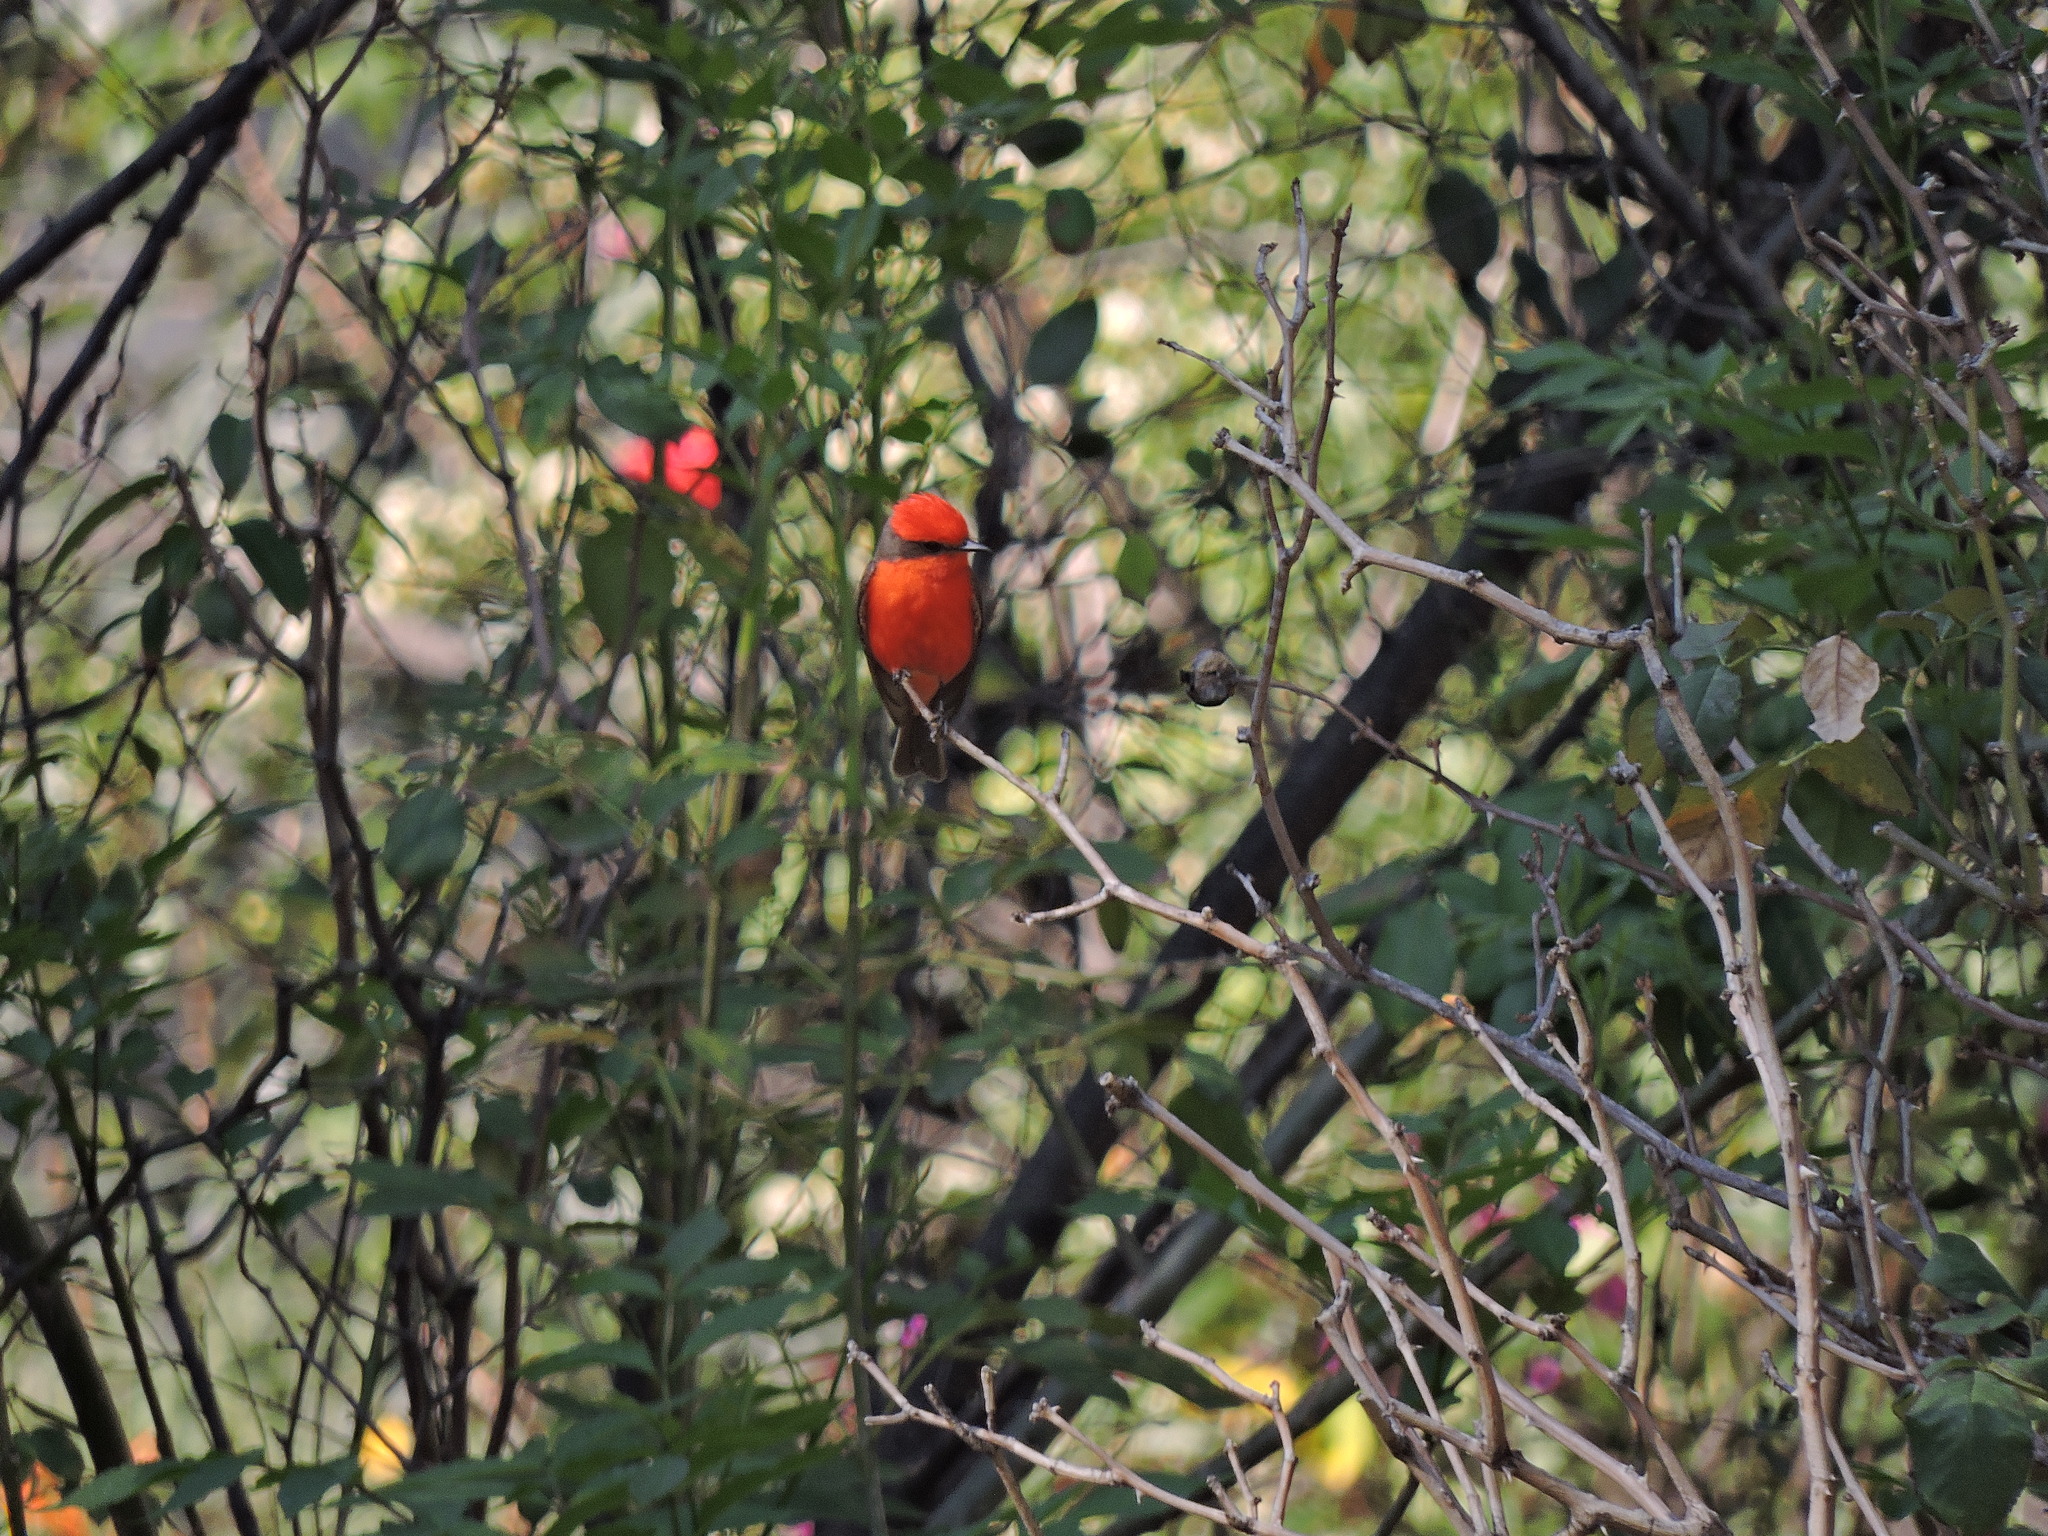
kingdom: Animalia
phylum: Chordata
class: Aves
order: Passeriformes
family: Tyrannidae
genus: Pyrocephalus
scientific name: Pyrocephalus rubinus
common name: Vermilion flycatcher
